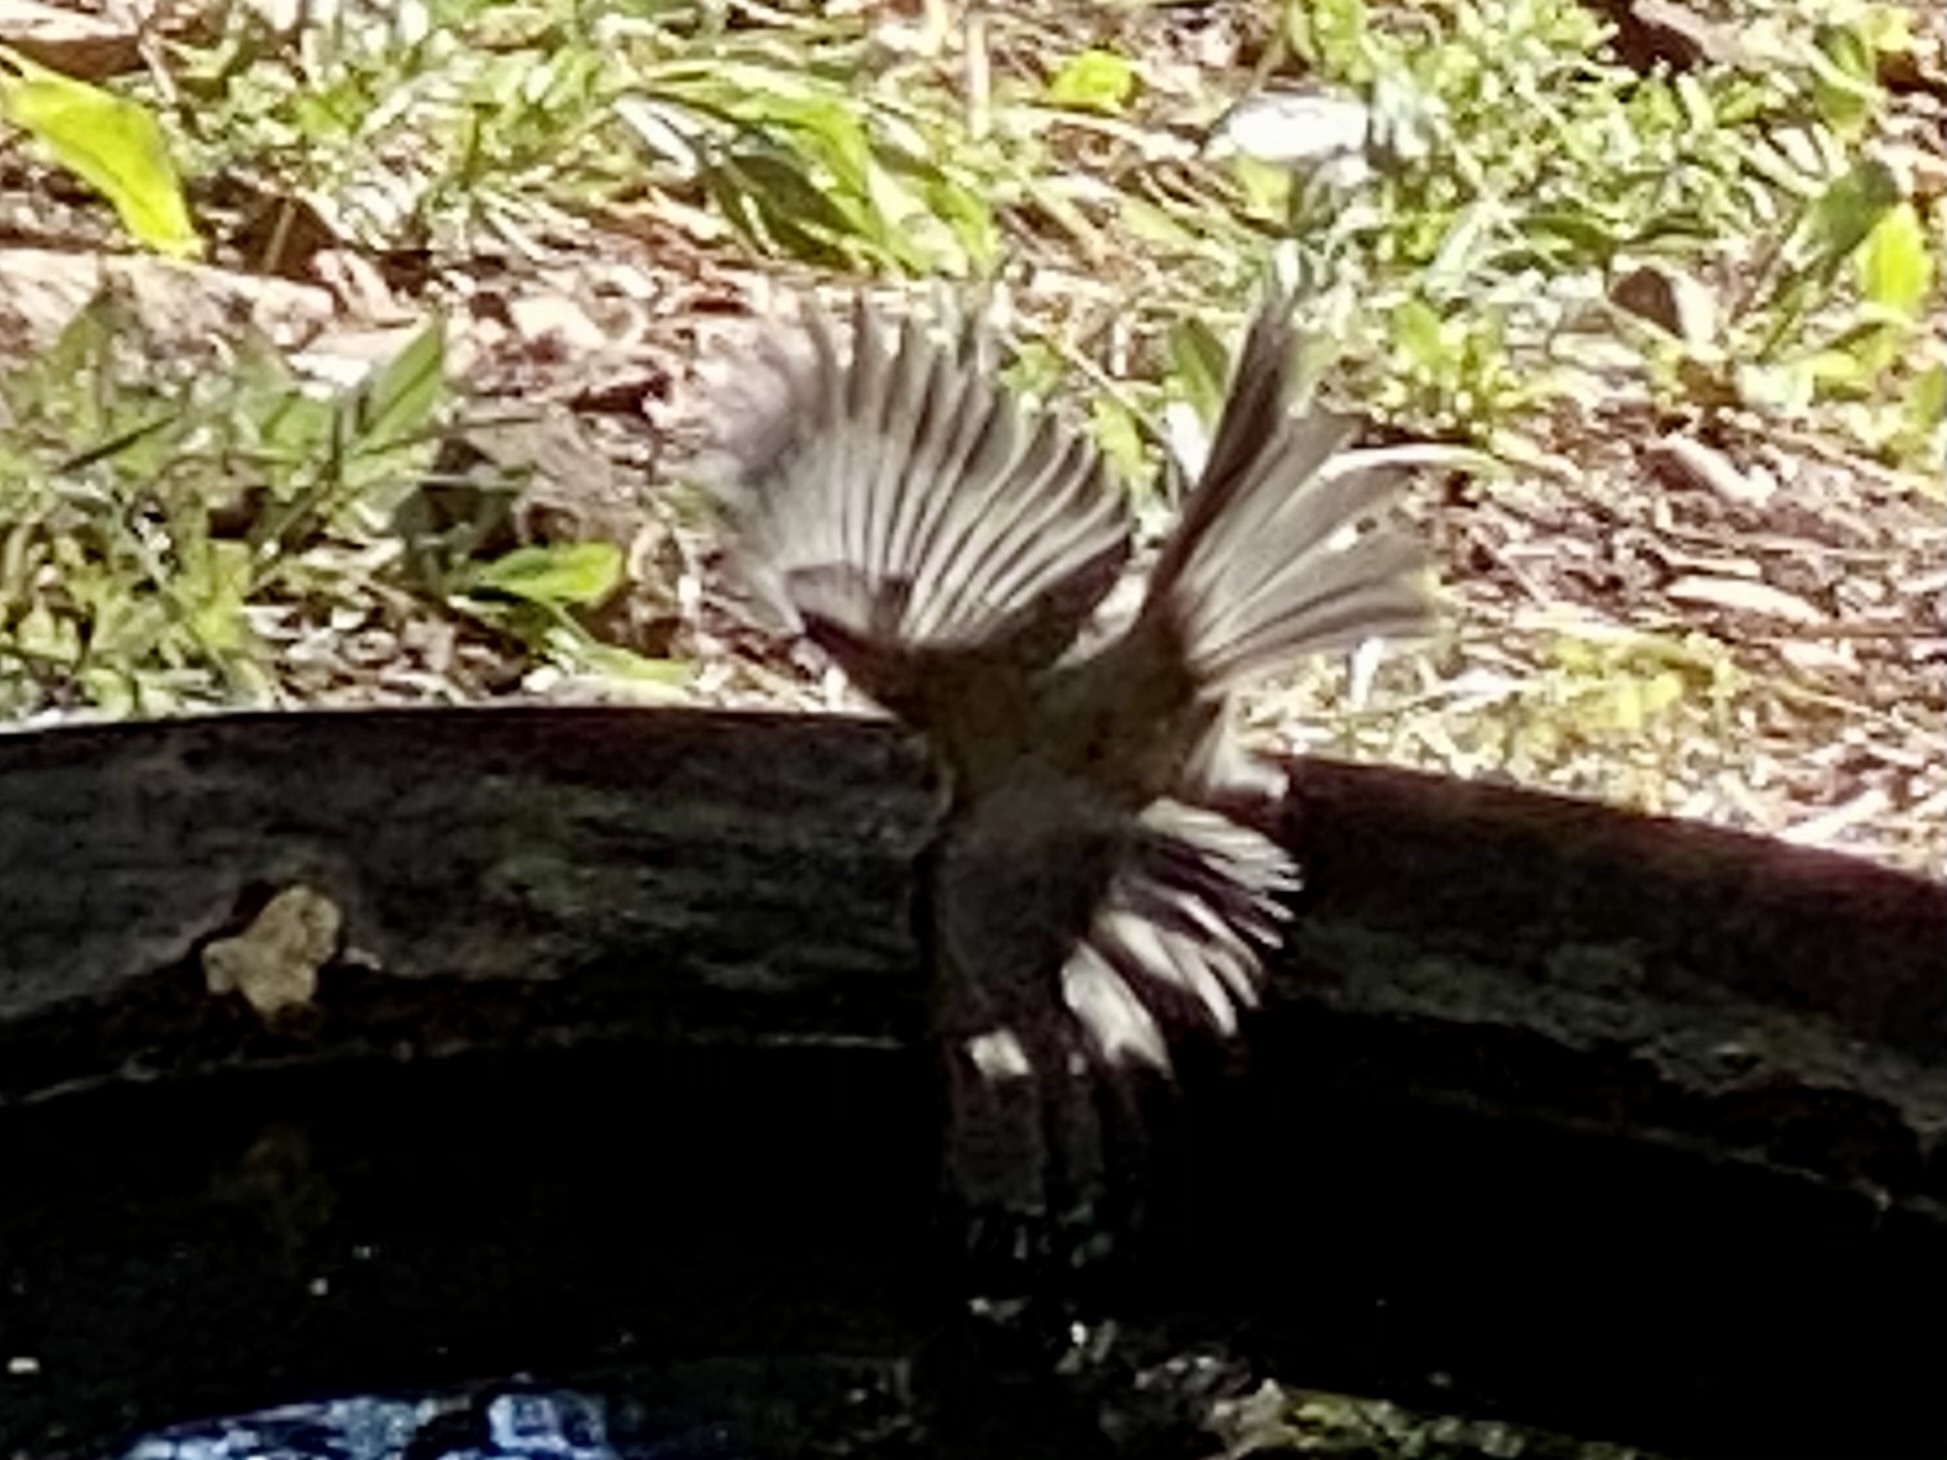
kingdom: Animalia
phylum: Chordata
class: Aves
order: Passeriformes
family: Paridae
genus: Poecile
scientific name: Poecile gambeli
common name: Mountain chickadee
